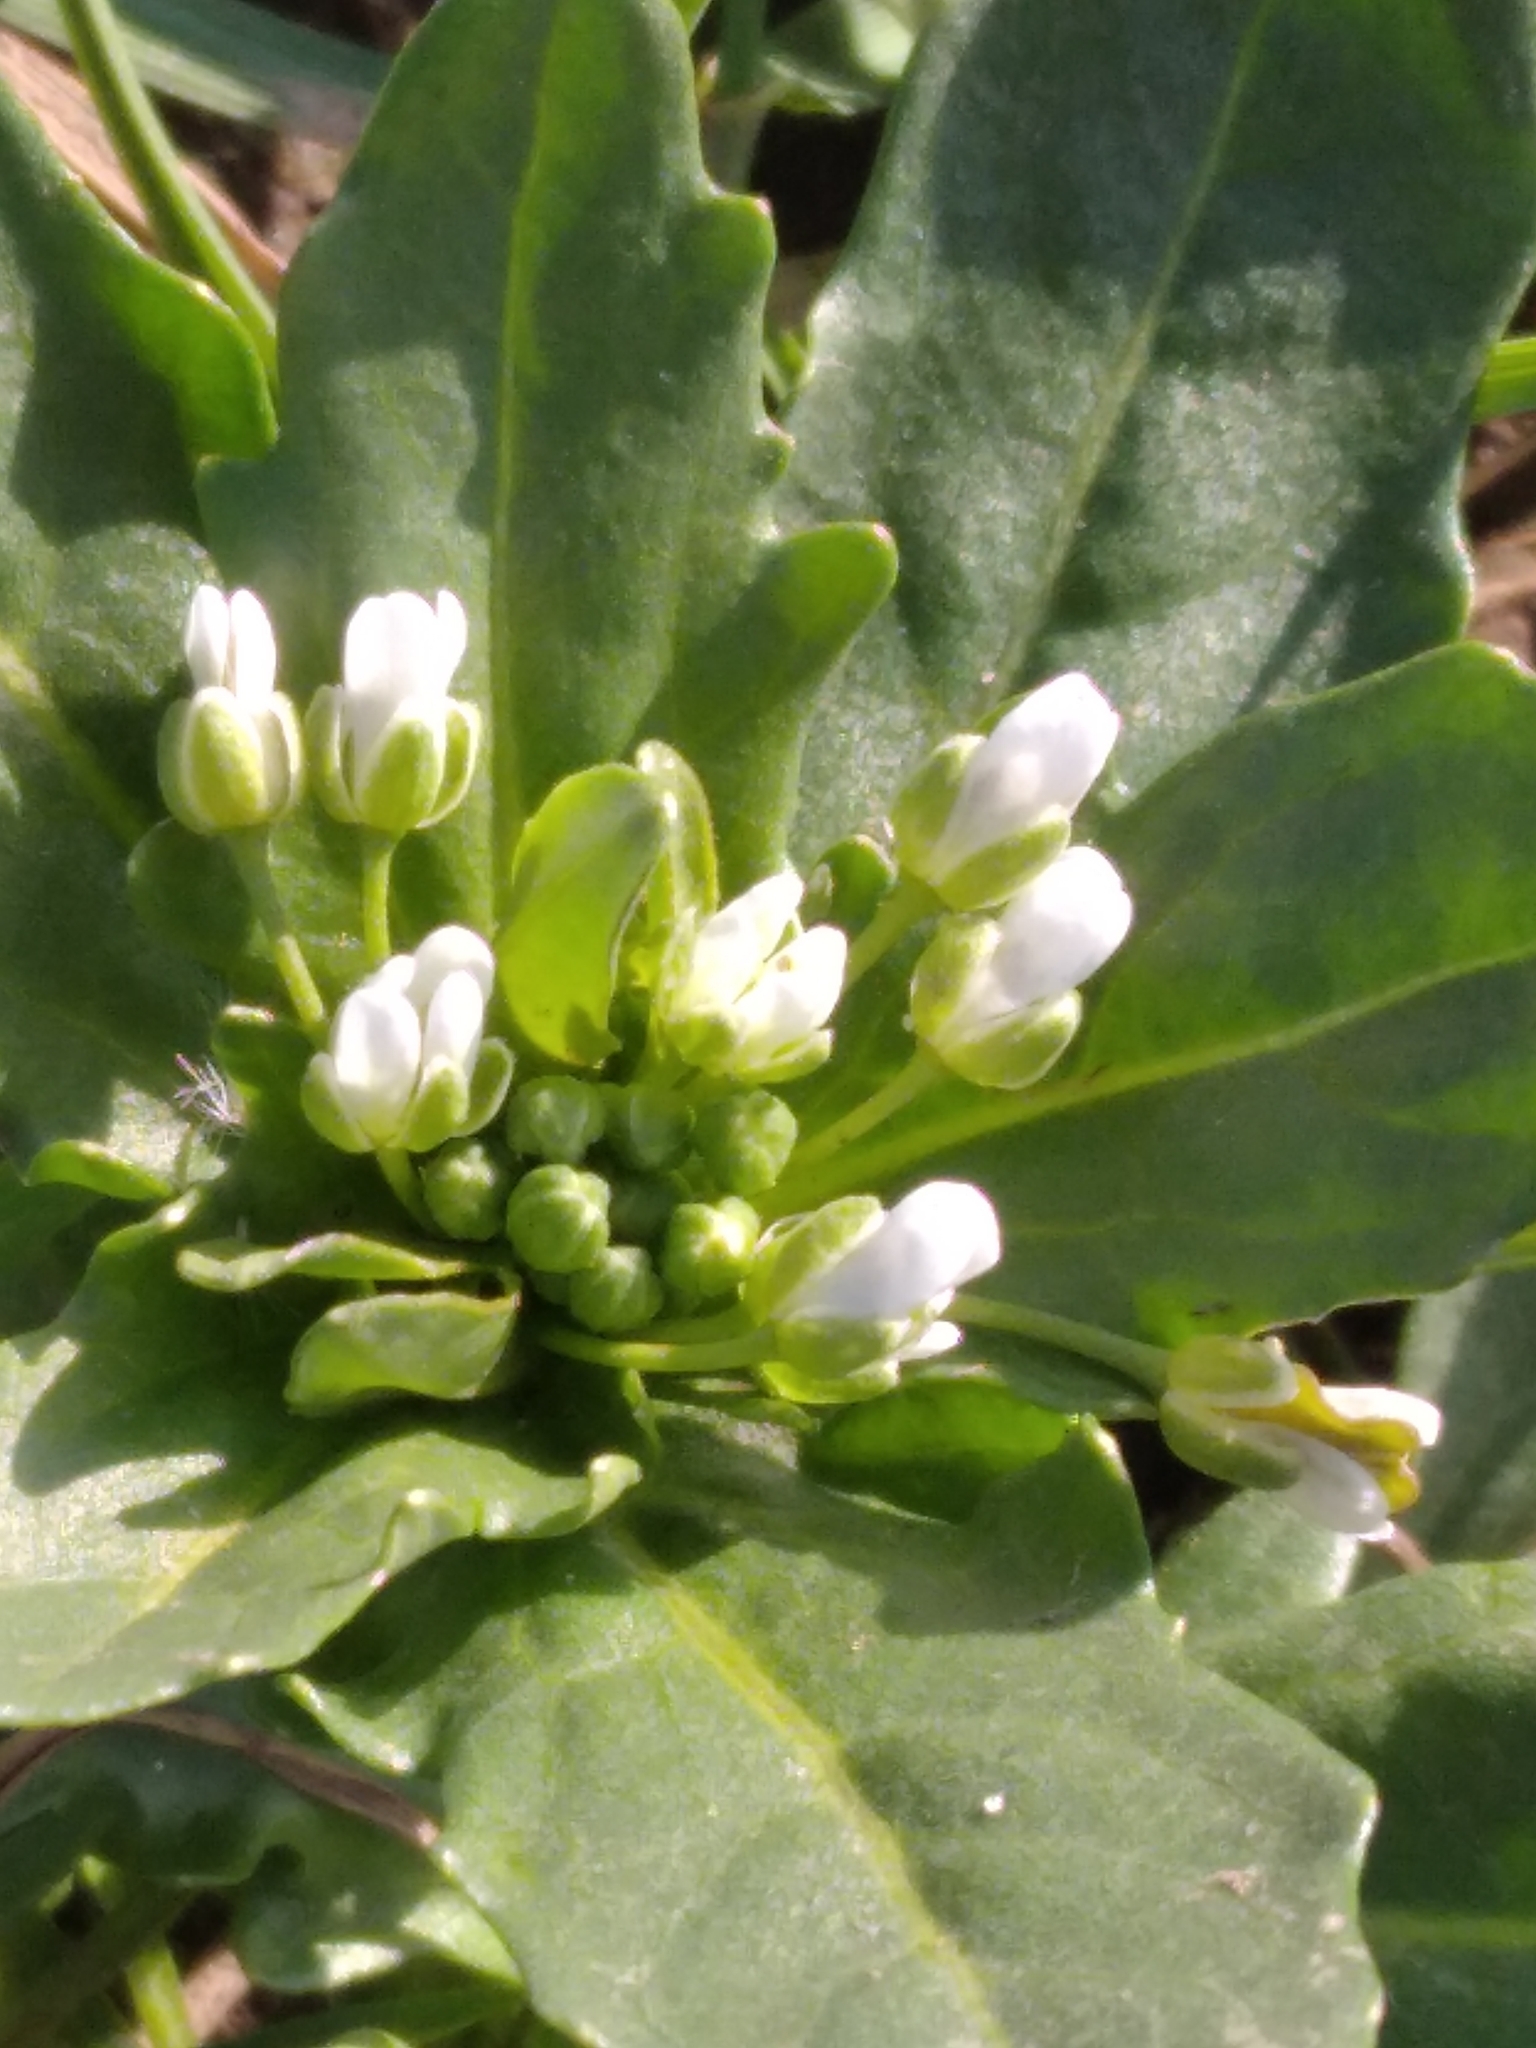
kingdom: Plantae
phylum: Tracheophyta
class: Magnoliopsida
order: Brassicales
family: Brassicaceae
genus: Thlaspi
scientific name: Thlaspi arvense
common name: Field pennycress
